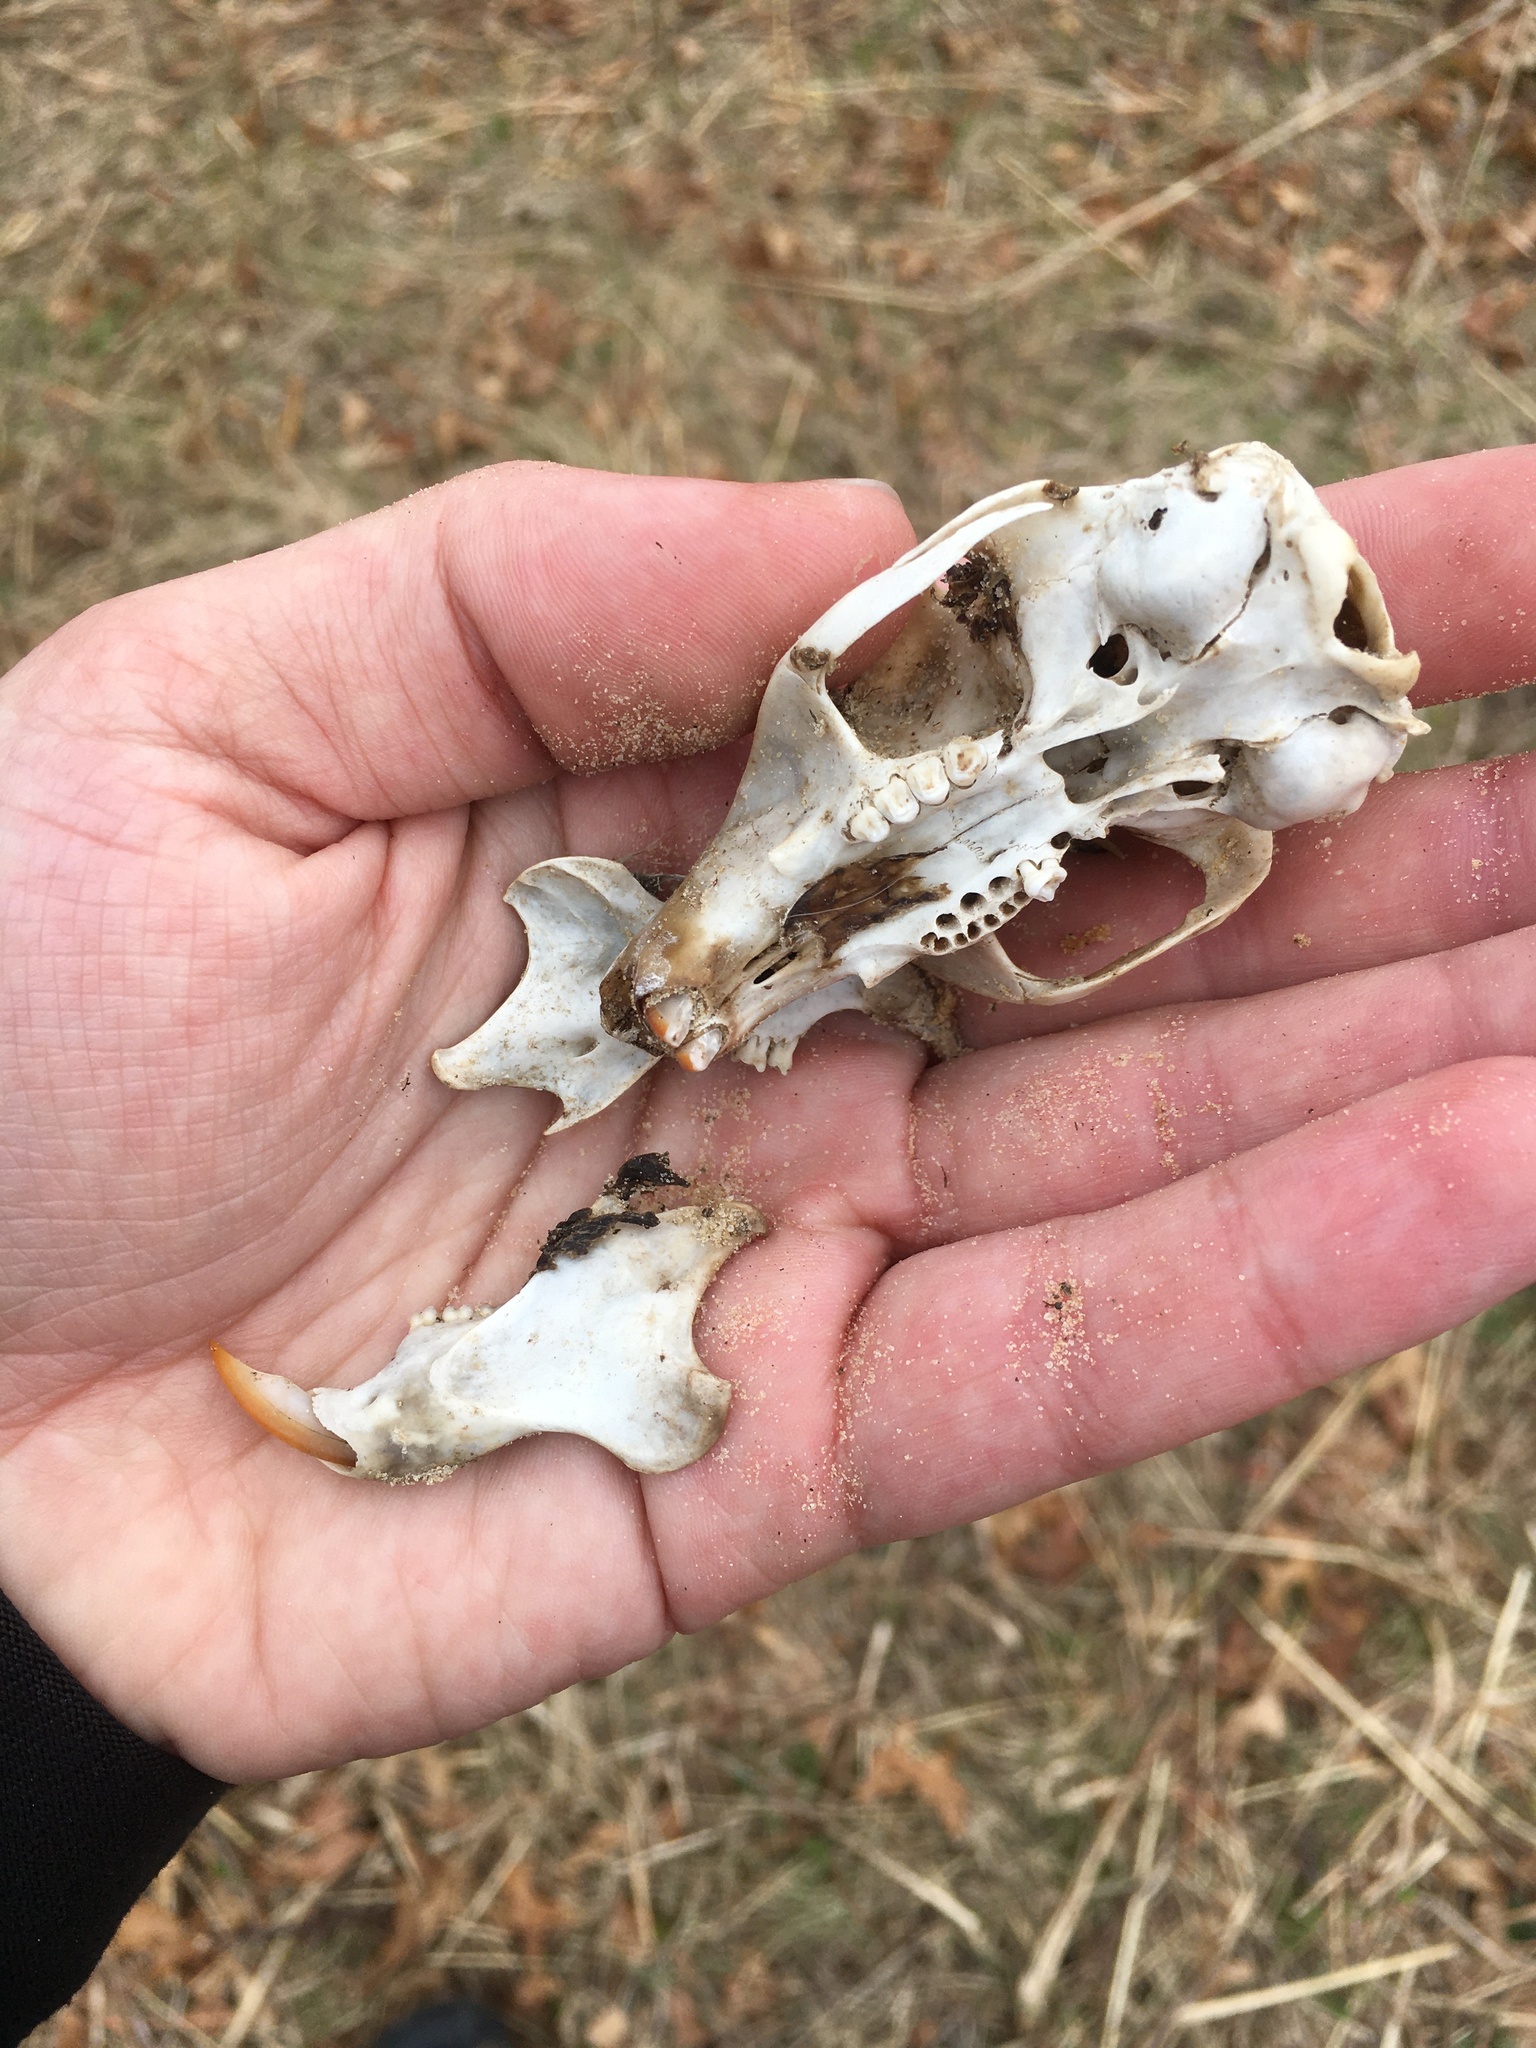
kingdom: Animalia
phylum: Chordata
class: Mammalia
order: Rodentia
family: Sciuridae
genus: Sciurus
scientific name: Sciurus carolinensis
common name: Eastern gray squirrel
